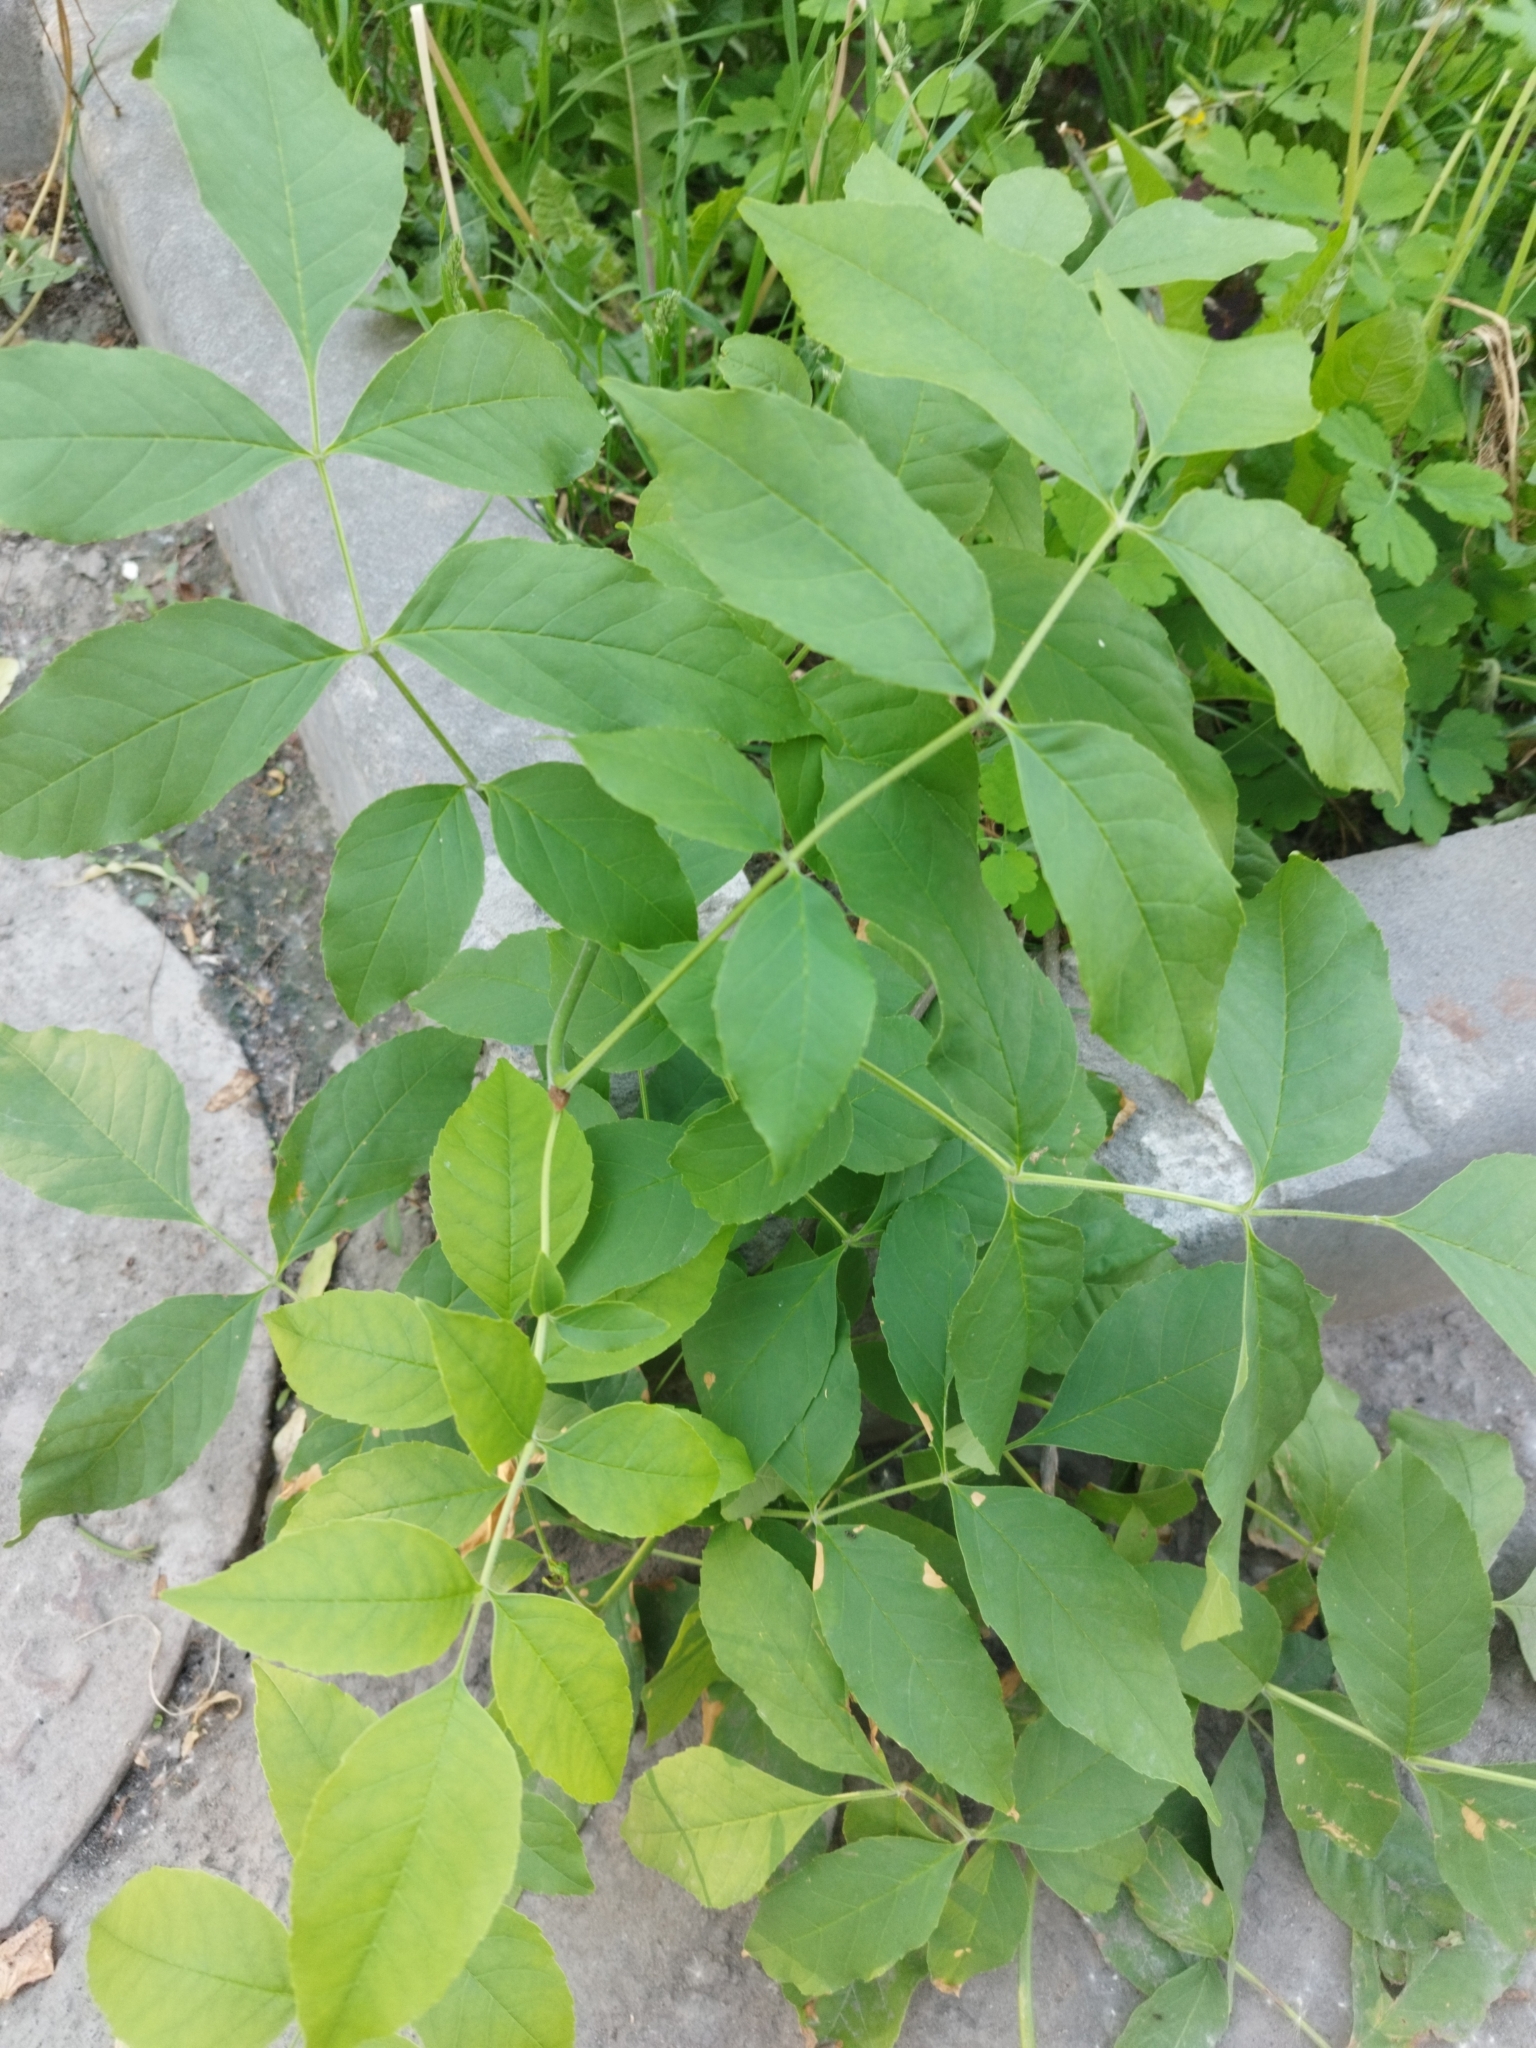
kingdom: Plantae
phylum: Tracheophyta
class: Magnoliopsida
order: Lamiales
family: Oleaceae
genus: Fraxinus
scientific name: Fraxinus pennsylvanica
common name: Green ash
